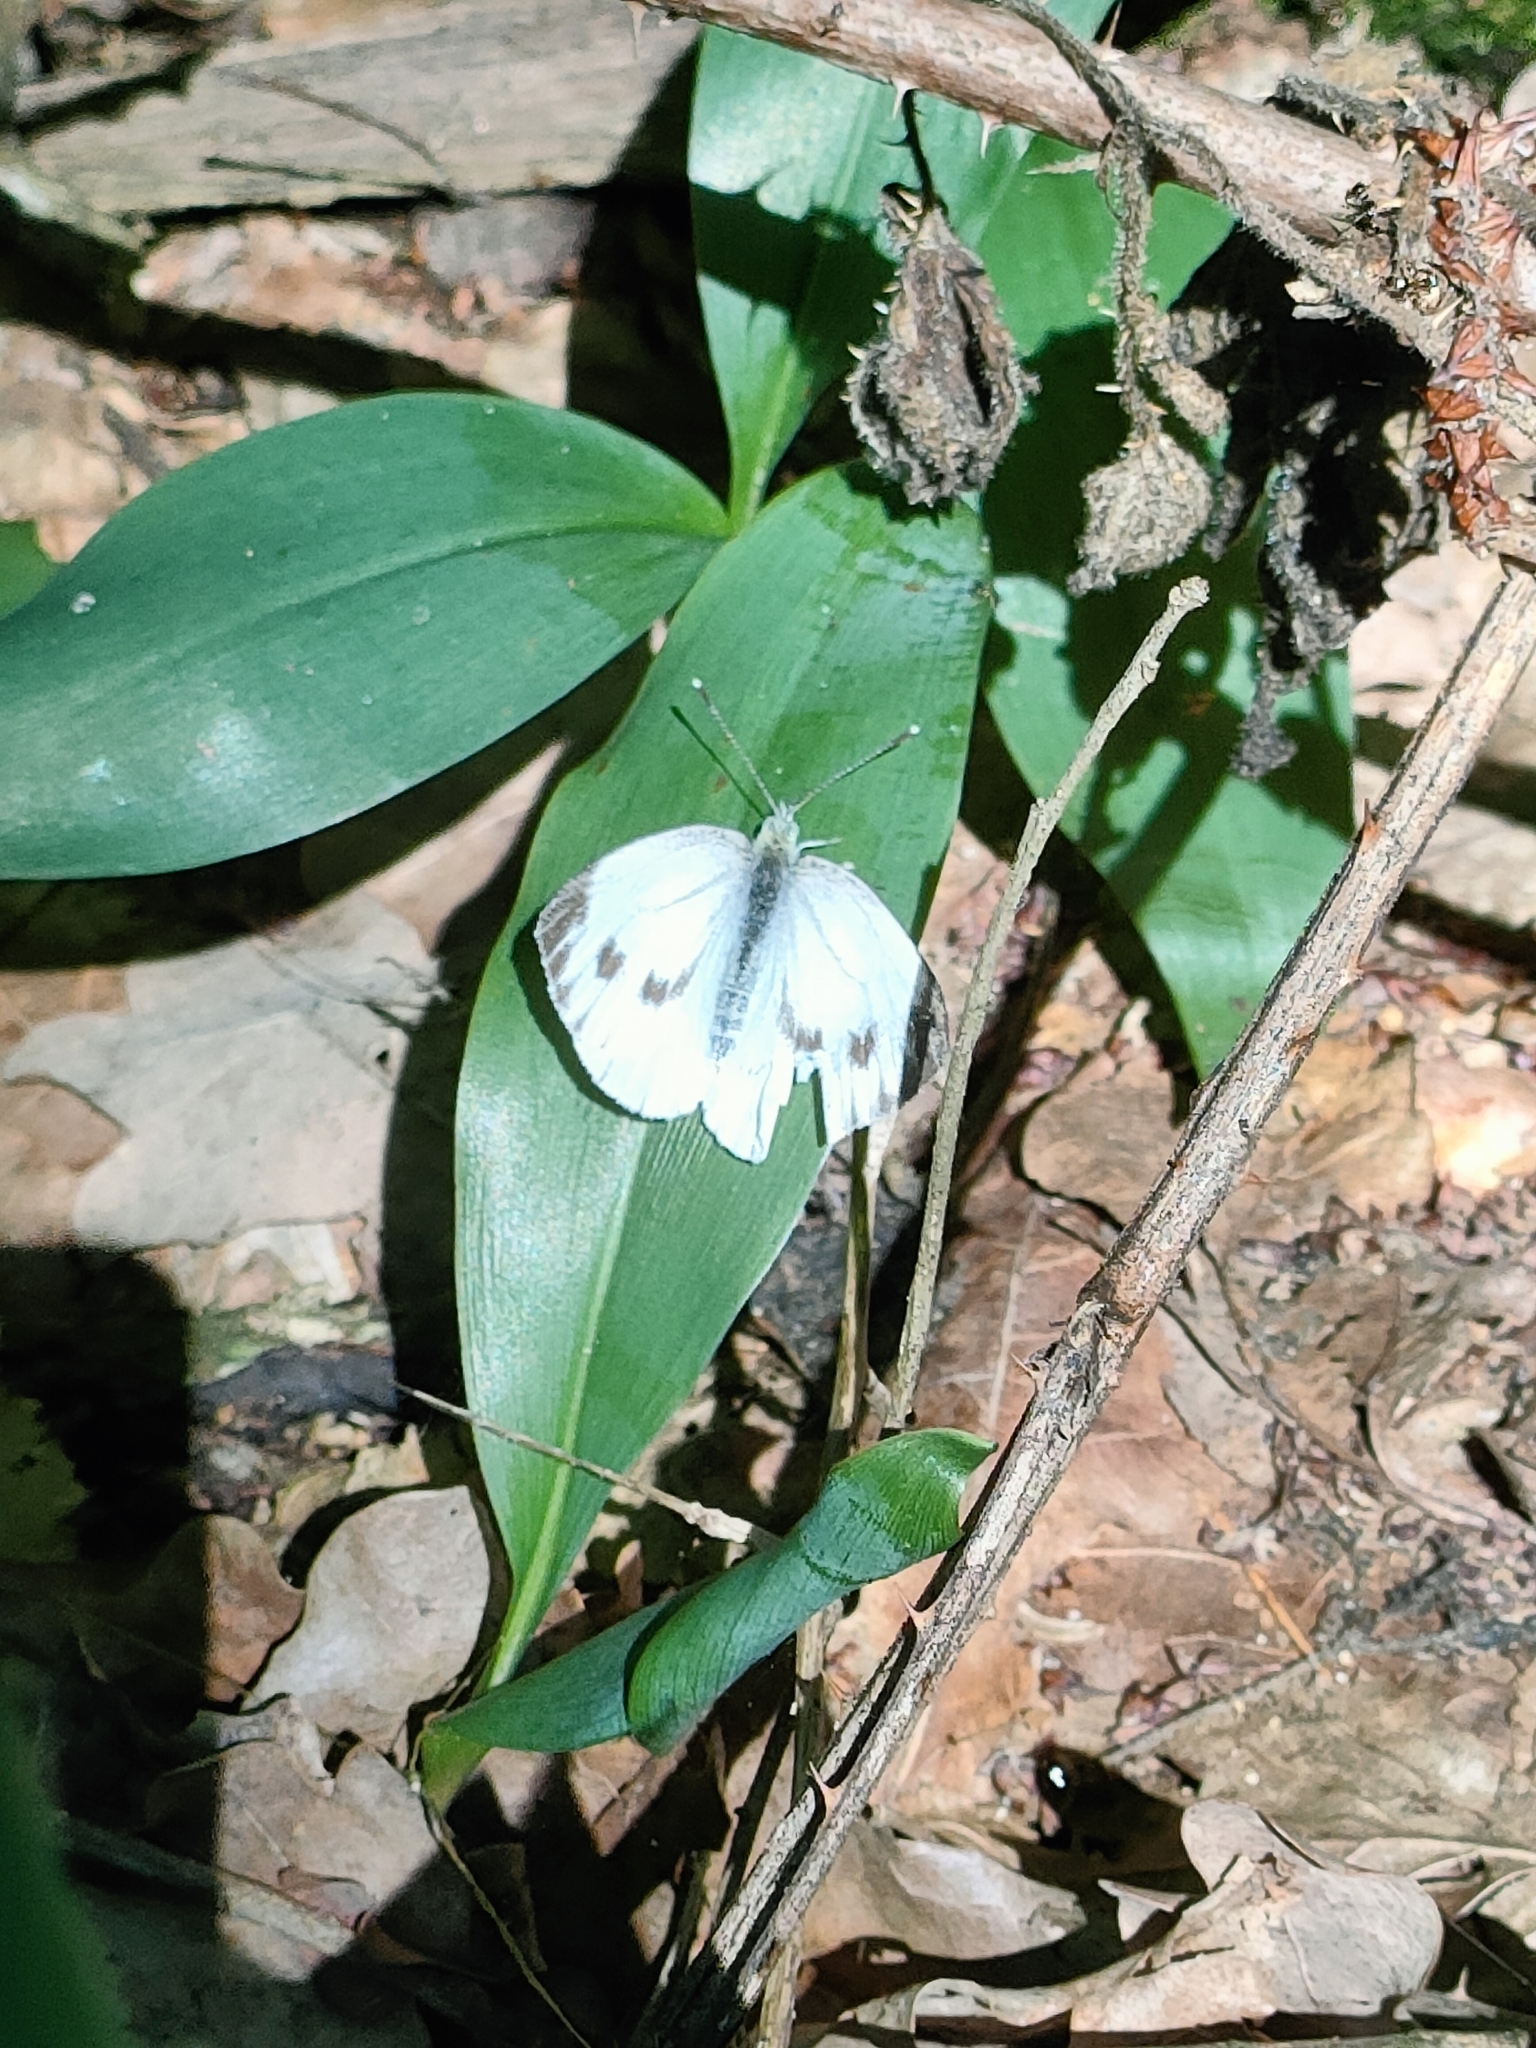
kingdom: Animalia
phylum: Arthropoda
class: Insecta
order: Lepidoptera
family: Pieridae
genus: Pieris
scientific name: Pieris napi
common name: Green-veined white
